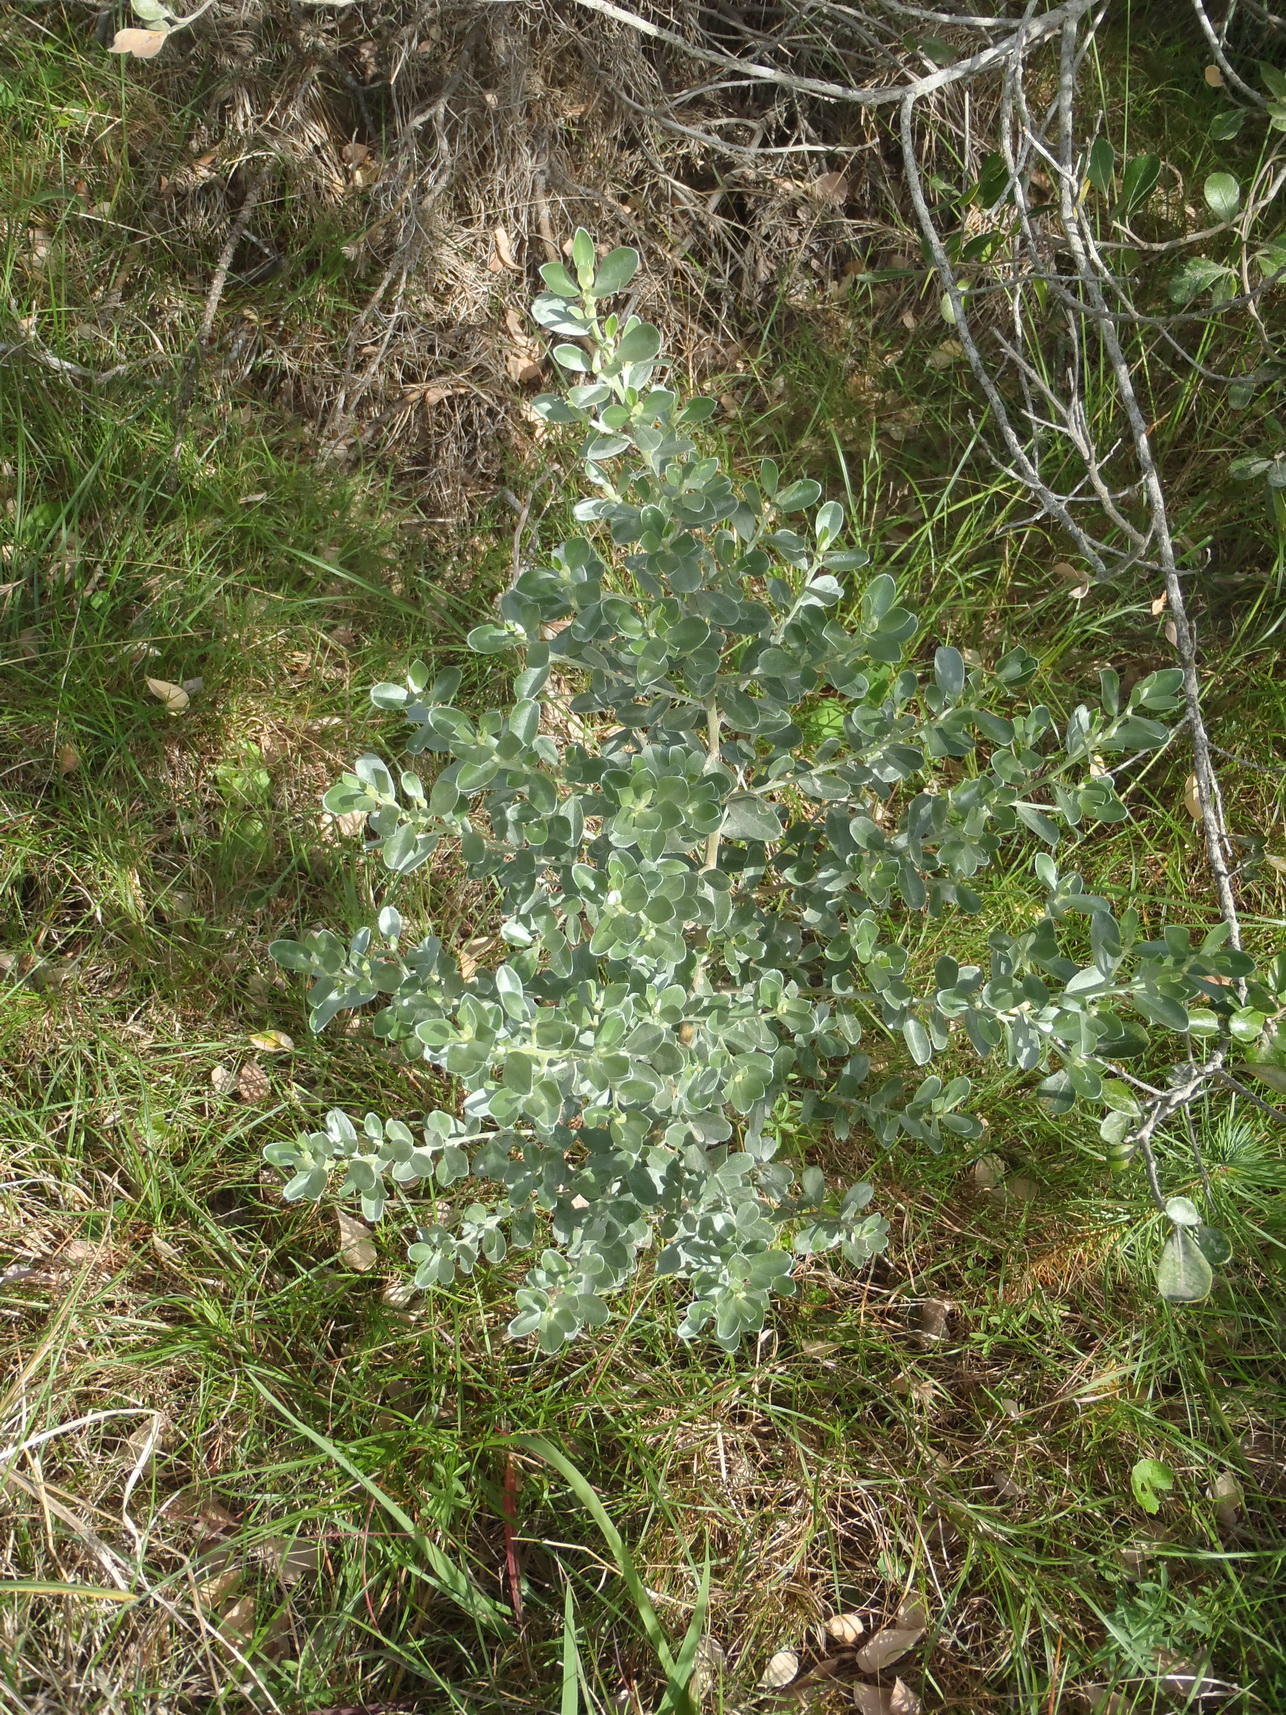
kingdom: Plantae
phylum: Tracheophyta
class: Magnoliopsida
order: Fabales
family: Fabaceae
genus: Podalyria
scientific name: Podalyria myrtillifolia
